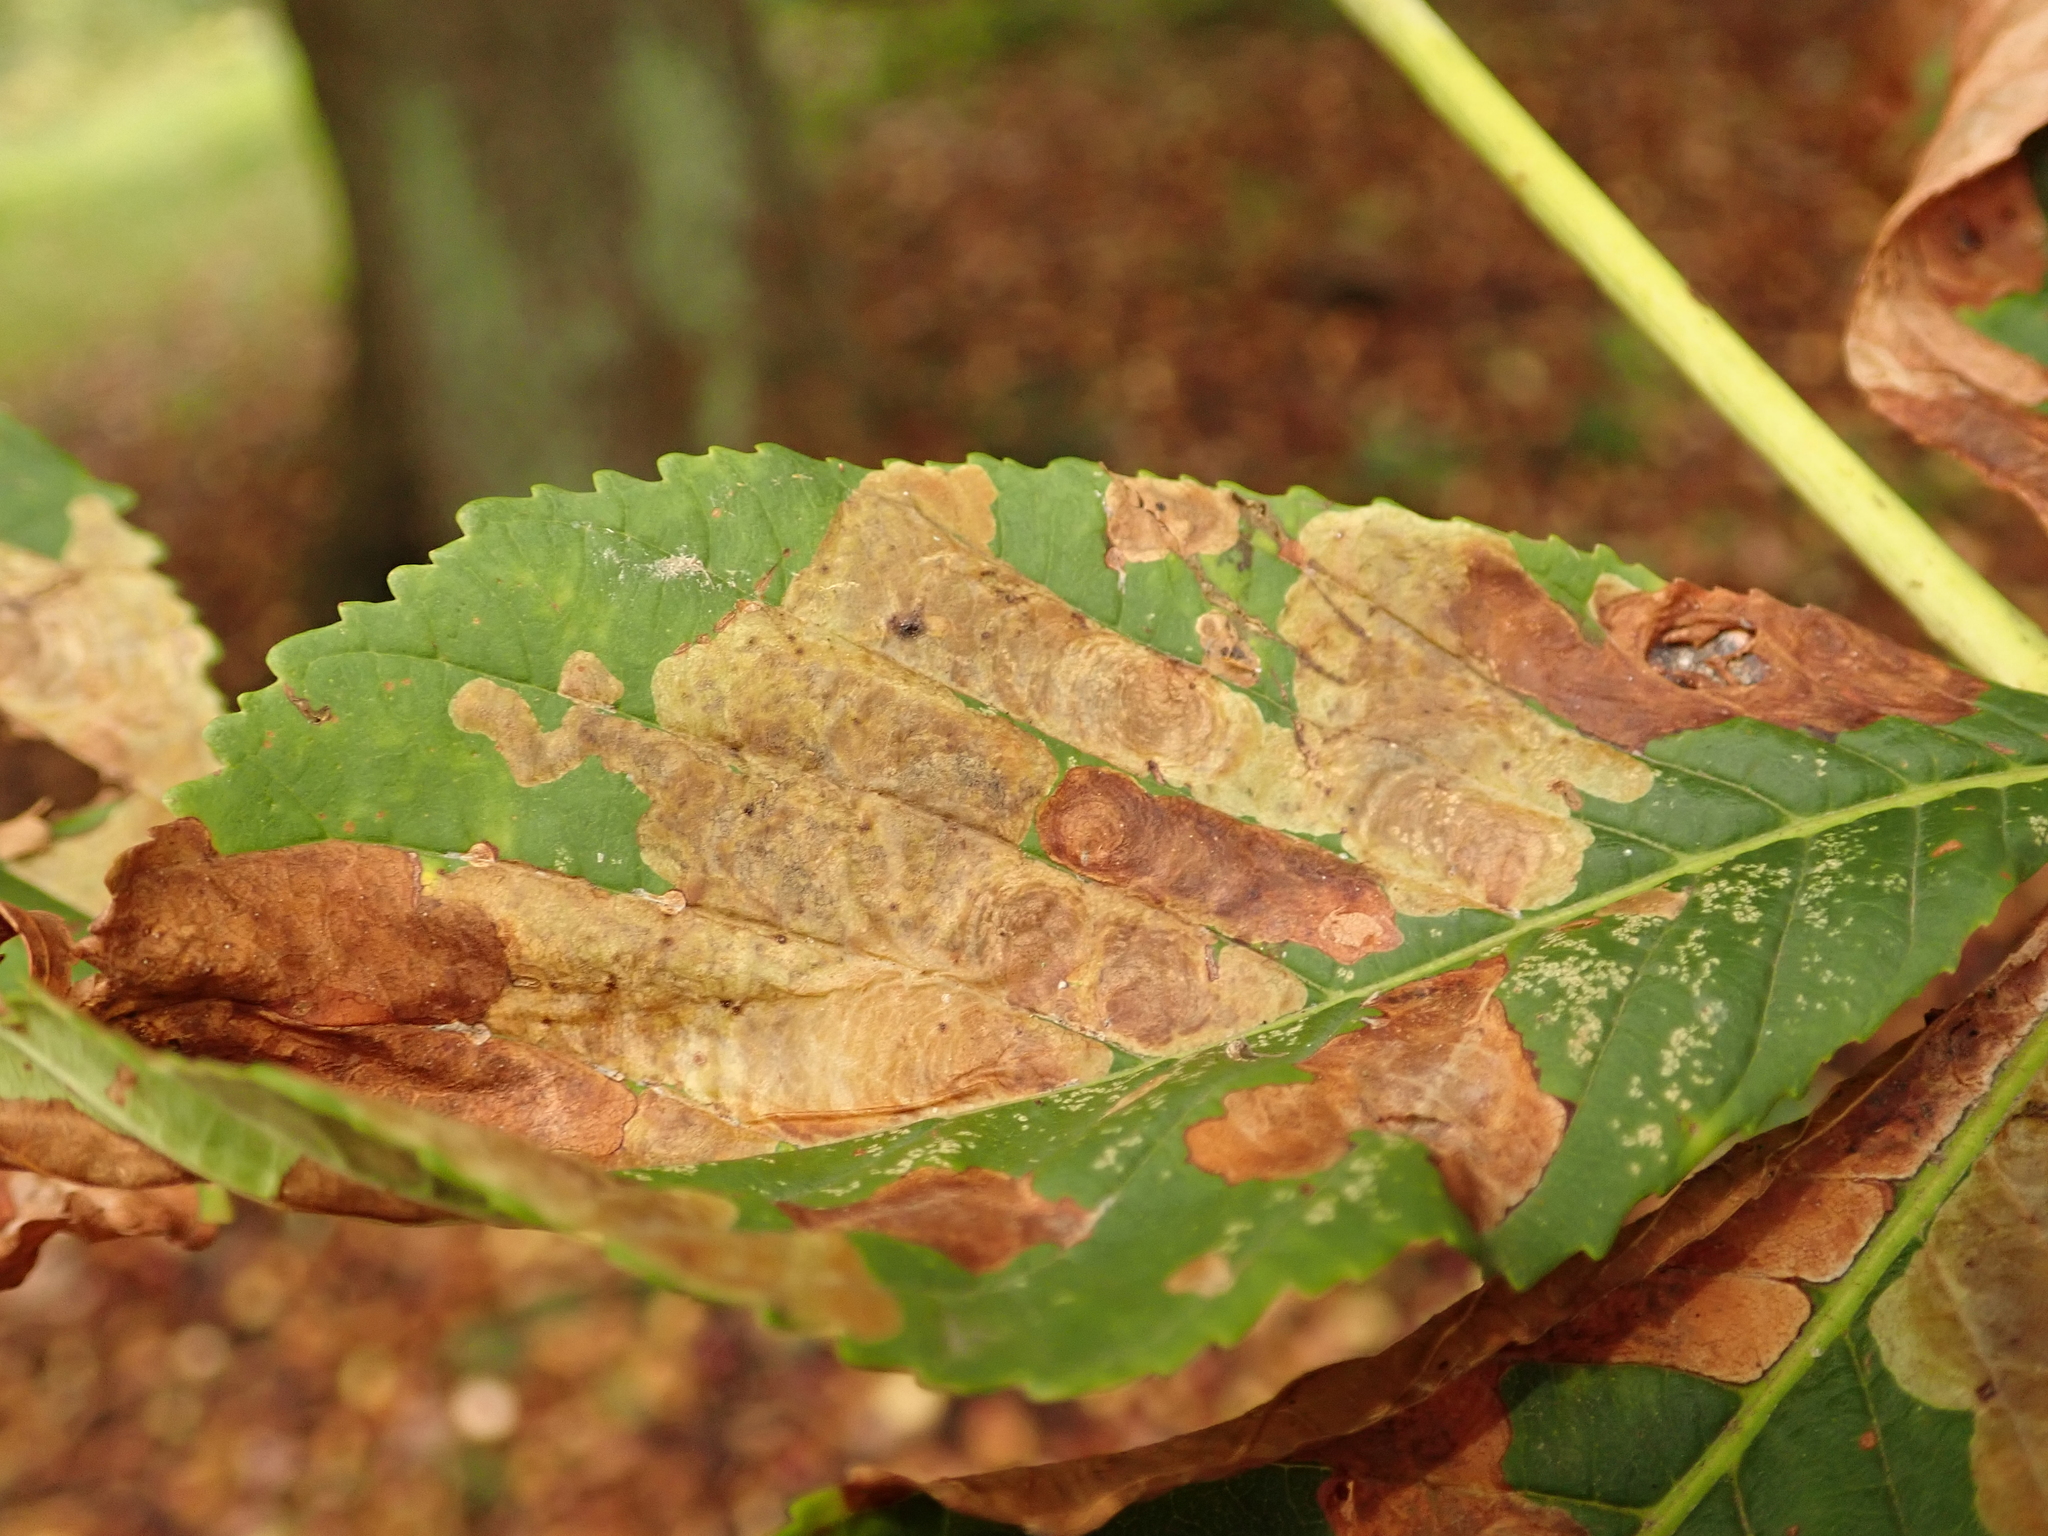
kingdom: Animalia
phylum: Arthropoda
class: Insecta
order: Lepidoptera
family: Gracillariidae
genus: Cameraria
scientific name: Cameraria ohridella
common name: Horse-chestnut leaf-miner
